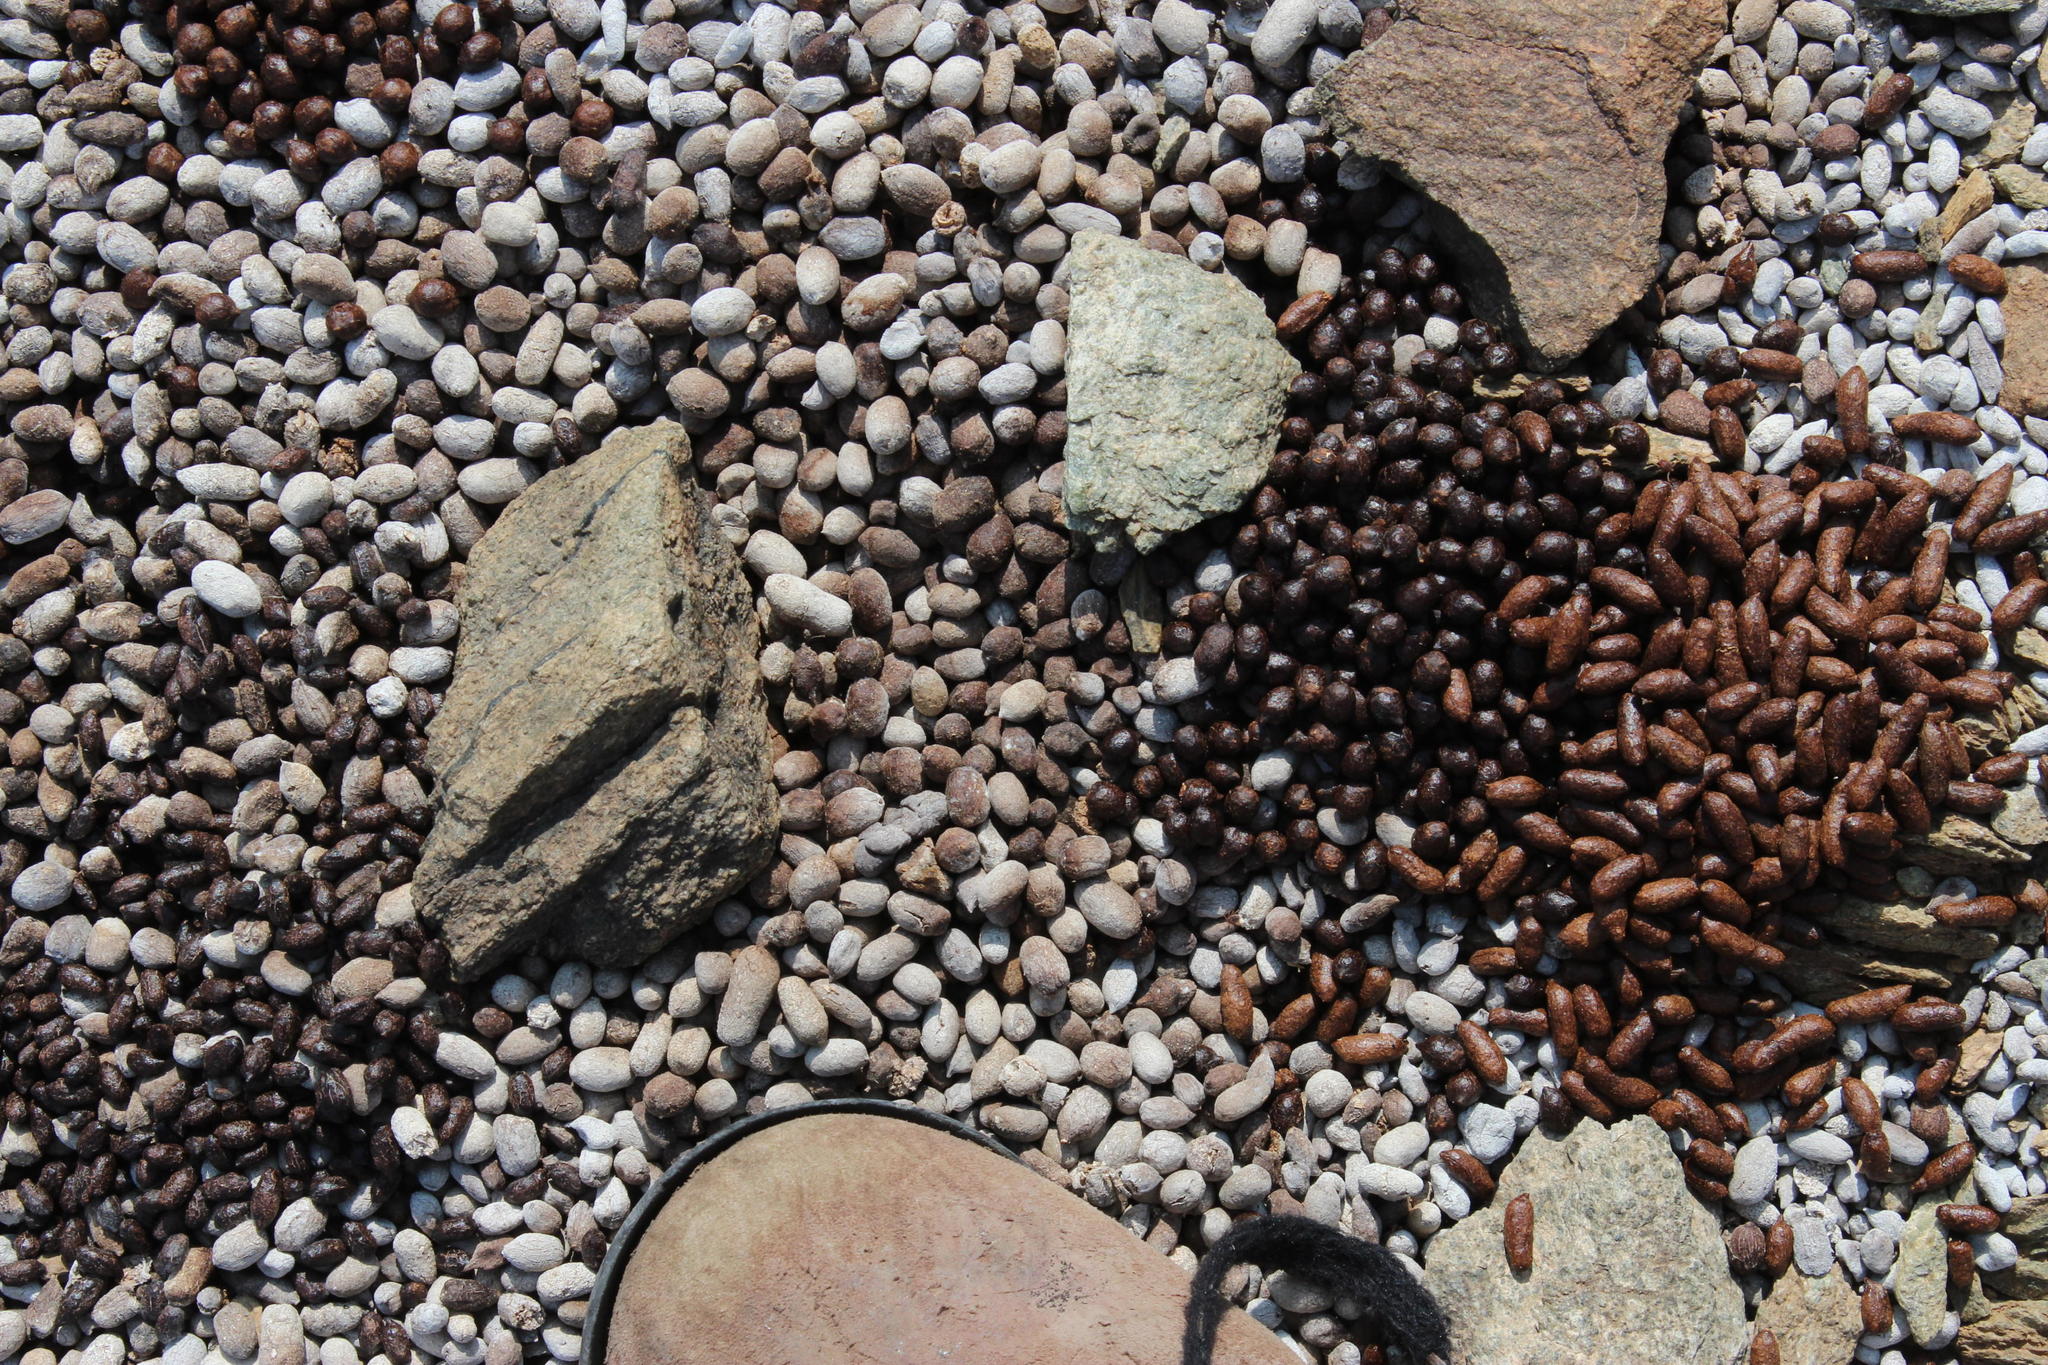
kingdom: Animalia
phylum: Chordata
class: Mammalia
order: Artiodactyla
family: Bovidae
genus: Oreotragus
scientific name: Oreotragus oreotragus
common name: Klipspringer
